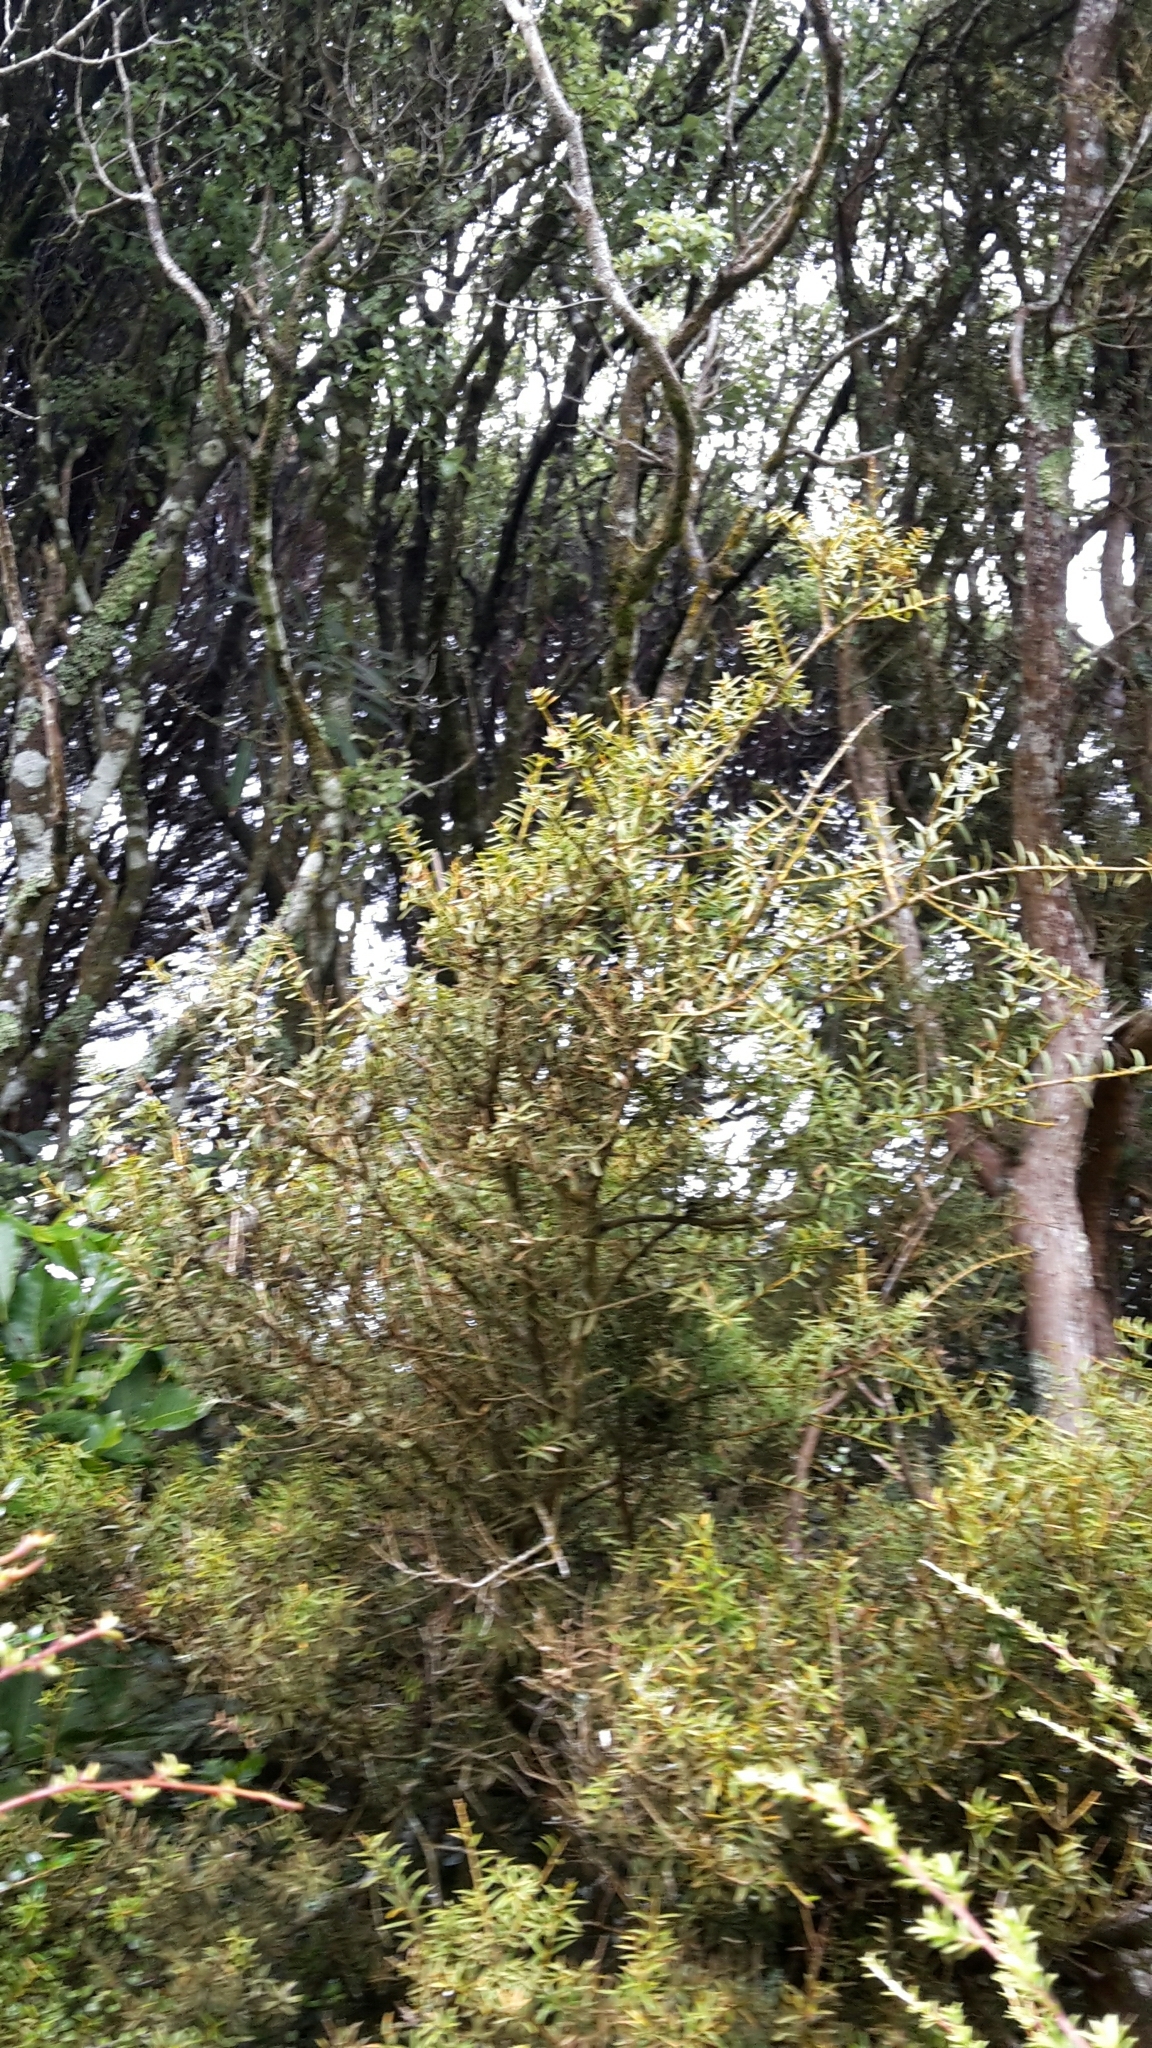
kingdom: Plantae
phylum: Tracheophyta
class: Pinopsida
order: Pinales
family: Podocarpaceae
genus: Podocarpus
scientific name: Podocarpus totara
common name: Totara
